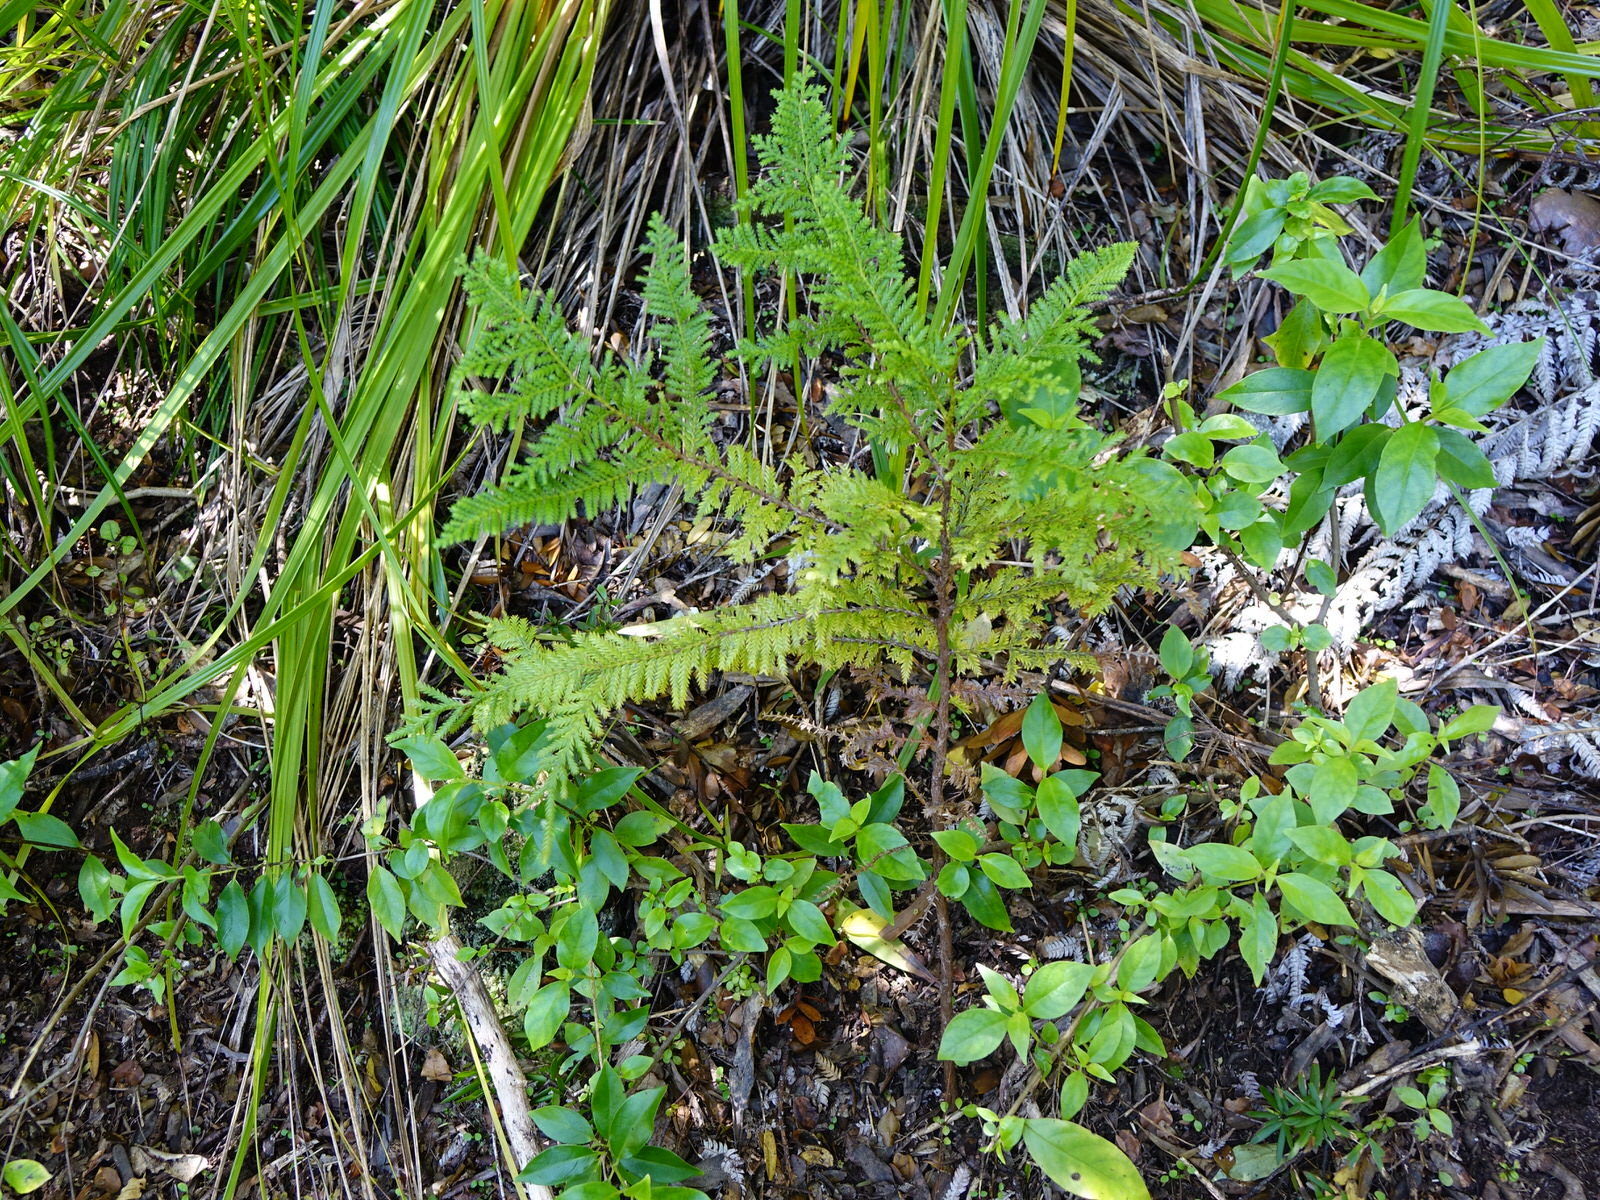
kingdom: Plantae
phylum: Tracheophyta
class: Pinopsida
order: Pinales
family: Cupressaceae
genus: Libocedrus
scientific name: Libocedrus plumosa
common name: New zealand cedar
